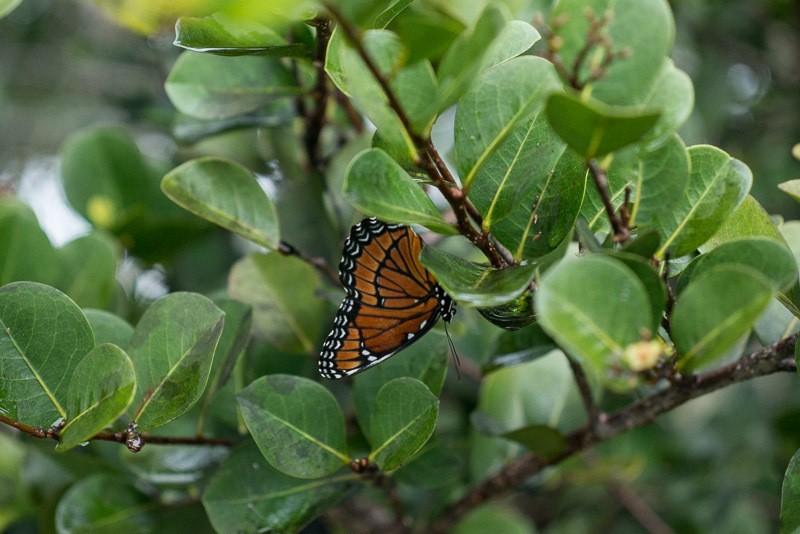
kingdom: Animalia
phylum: Arthropoda
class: Insecta
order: Lepidoptera
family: Nymphalidae
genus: Limenitis
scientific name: Limenitis archippus
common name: Viceroy
